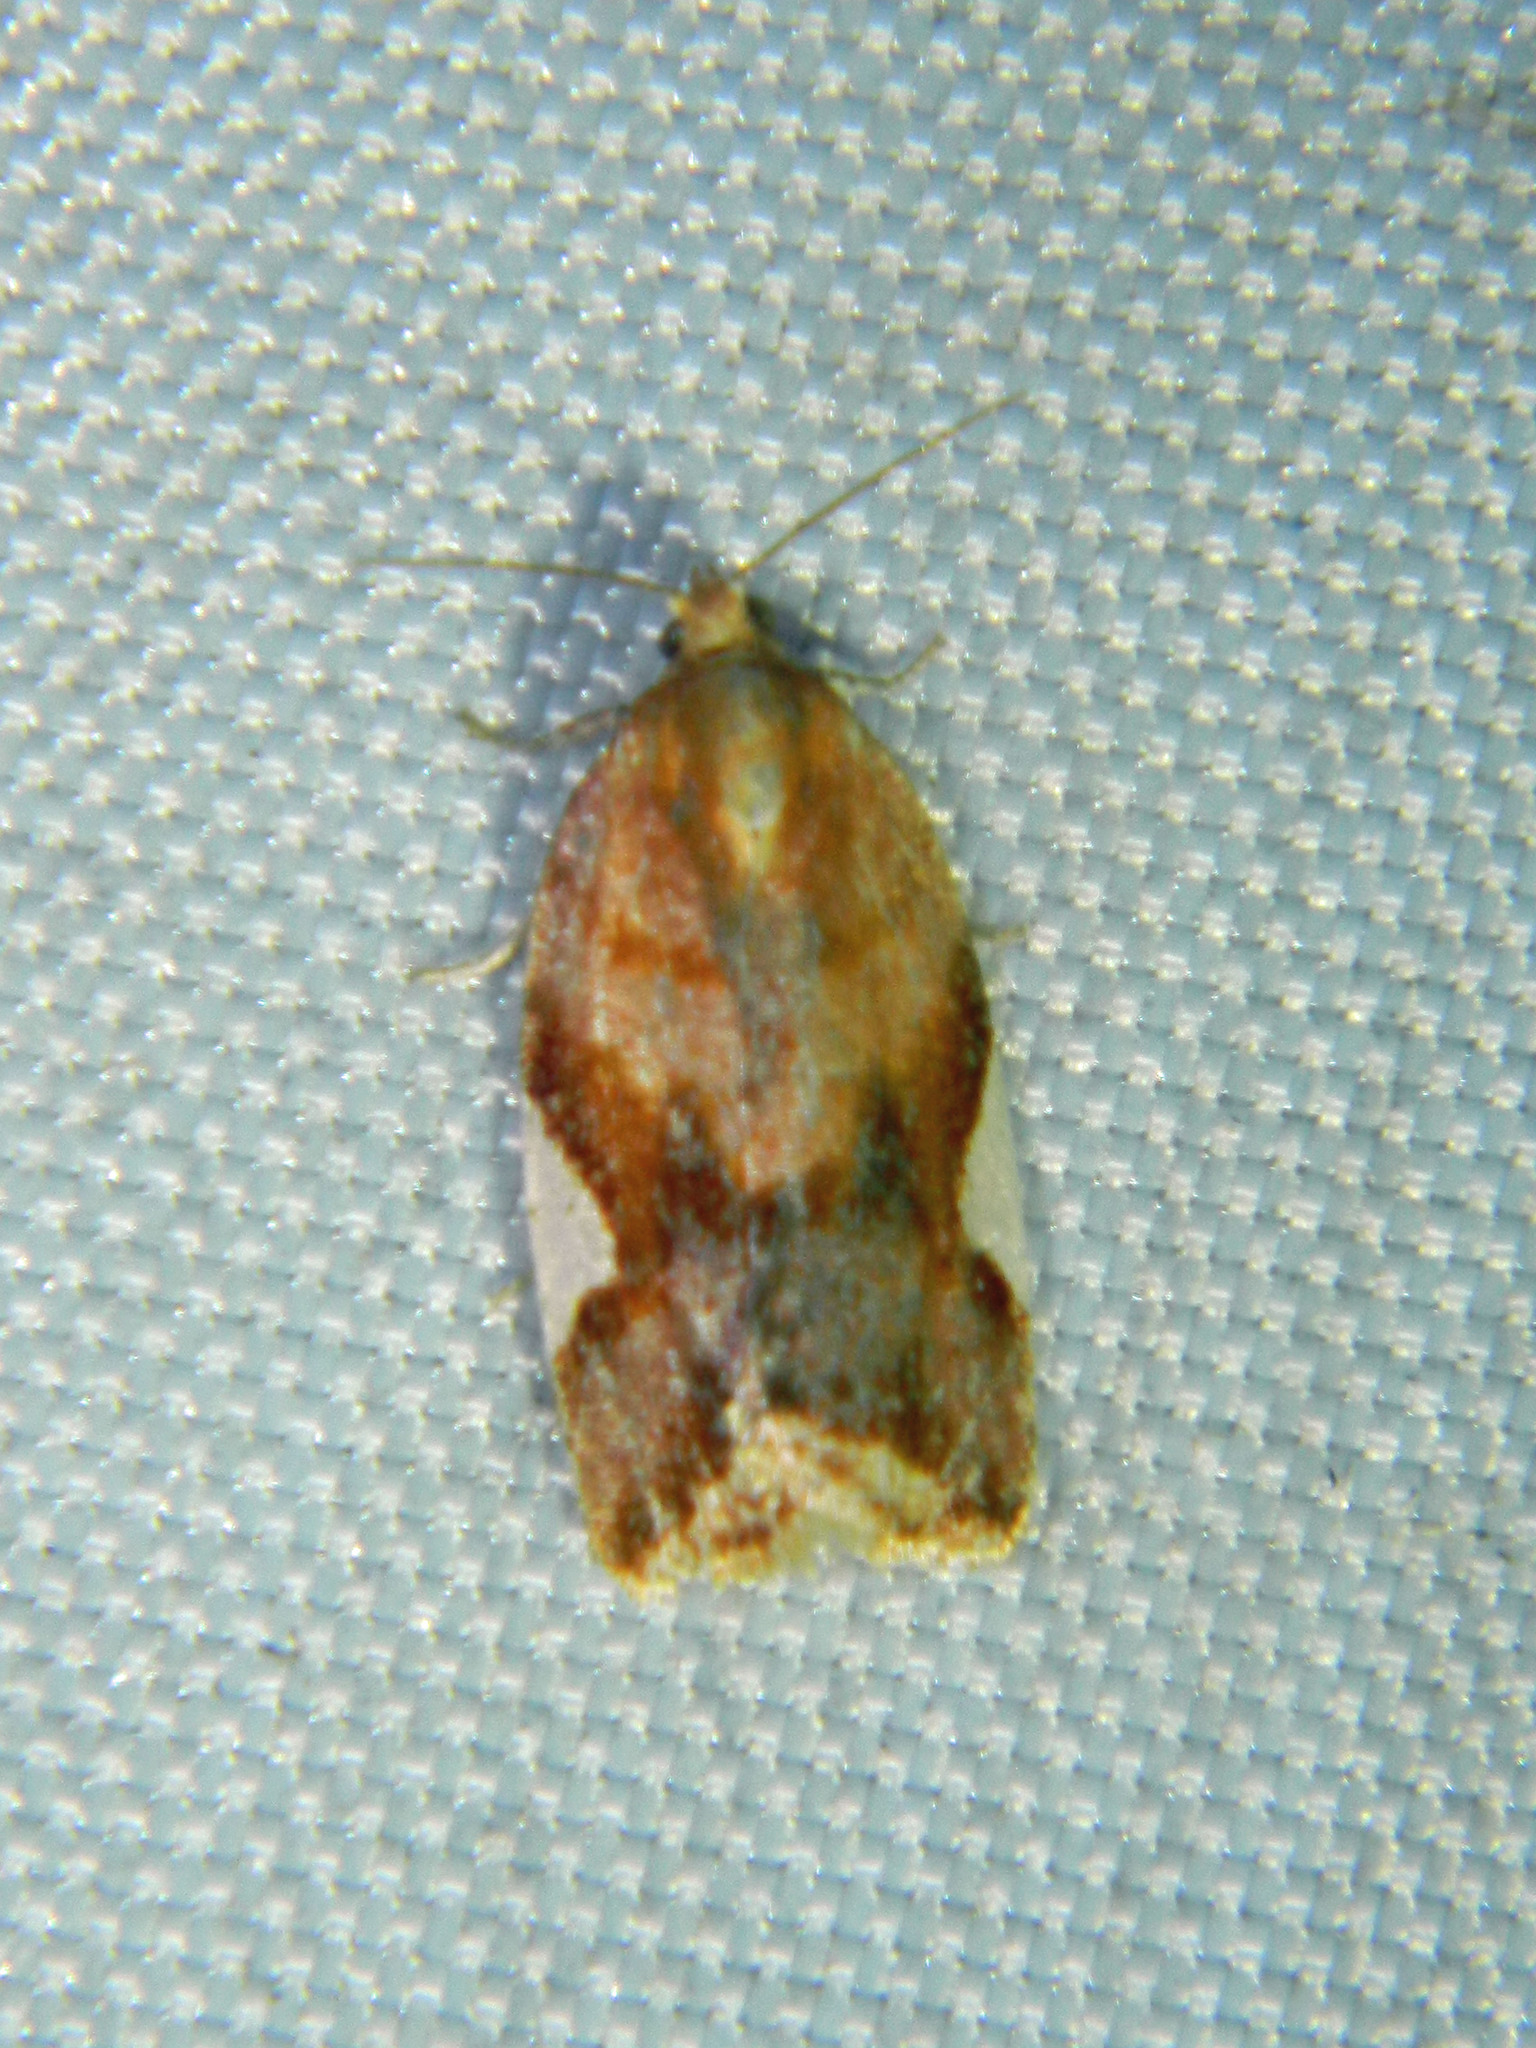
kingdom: Animalia
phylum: Arthropoda
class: Insecta
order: Lepidoptera
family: Tortricidae
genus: Clepsis
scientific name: Clepsis persicana
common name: White triangle tortrix
